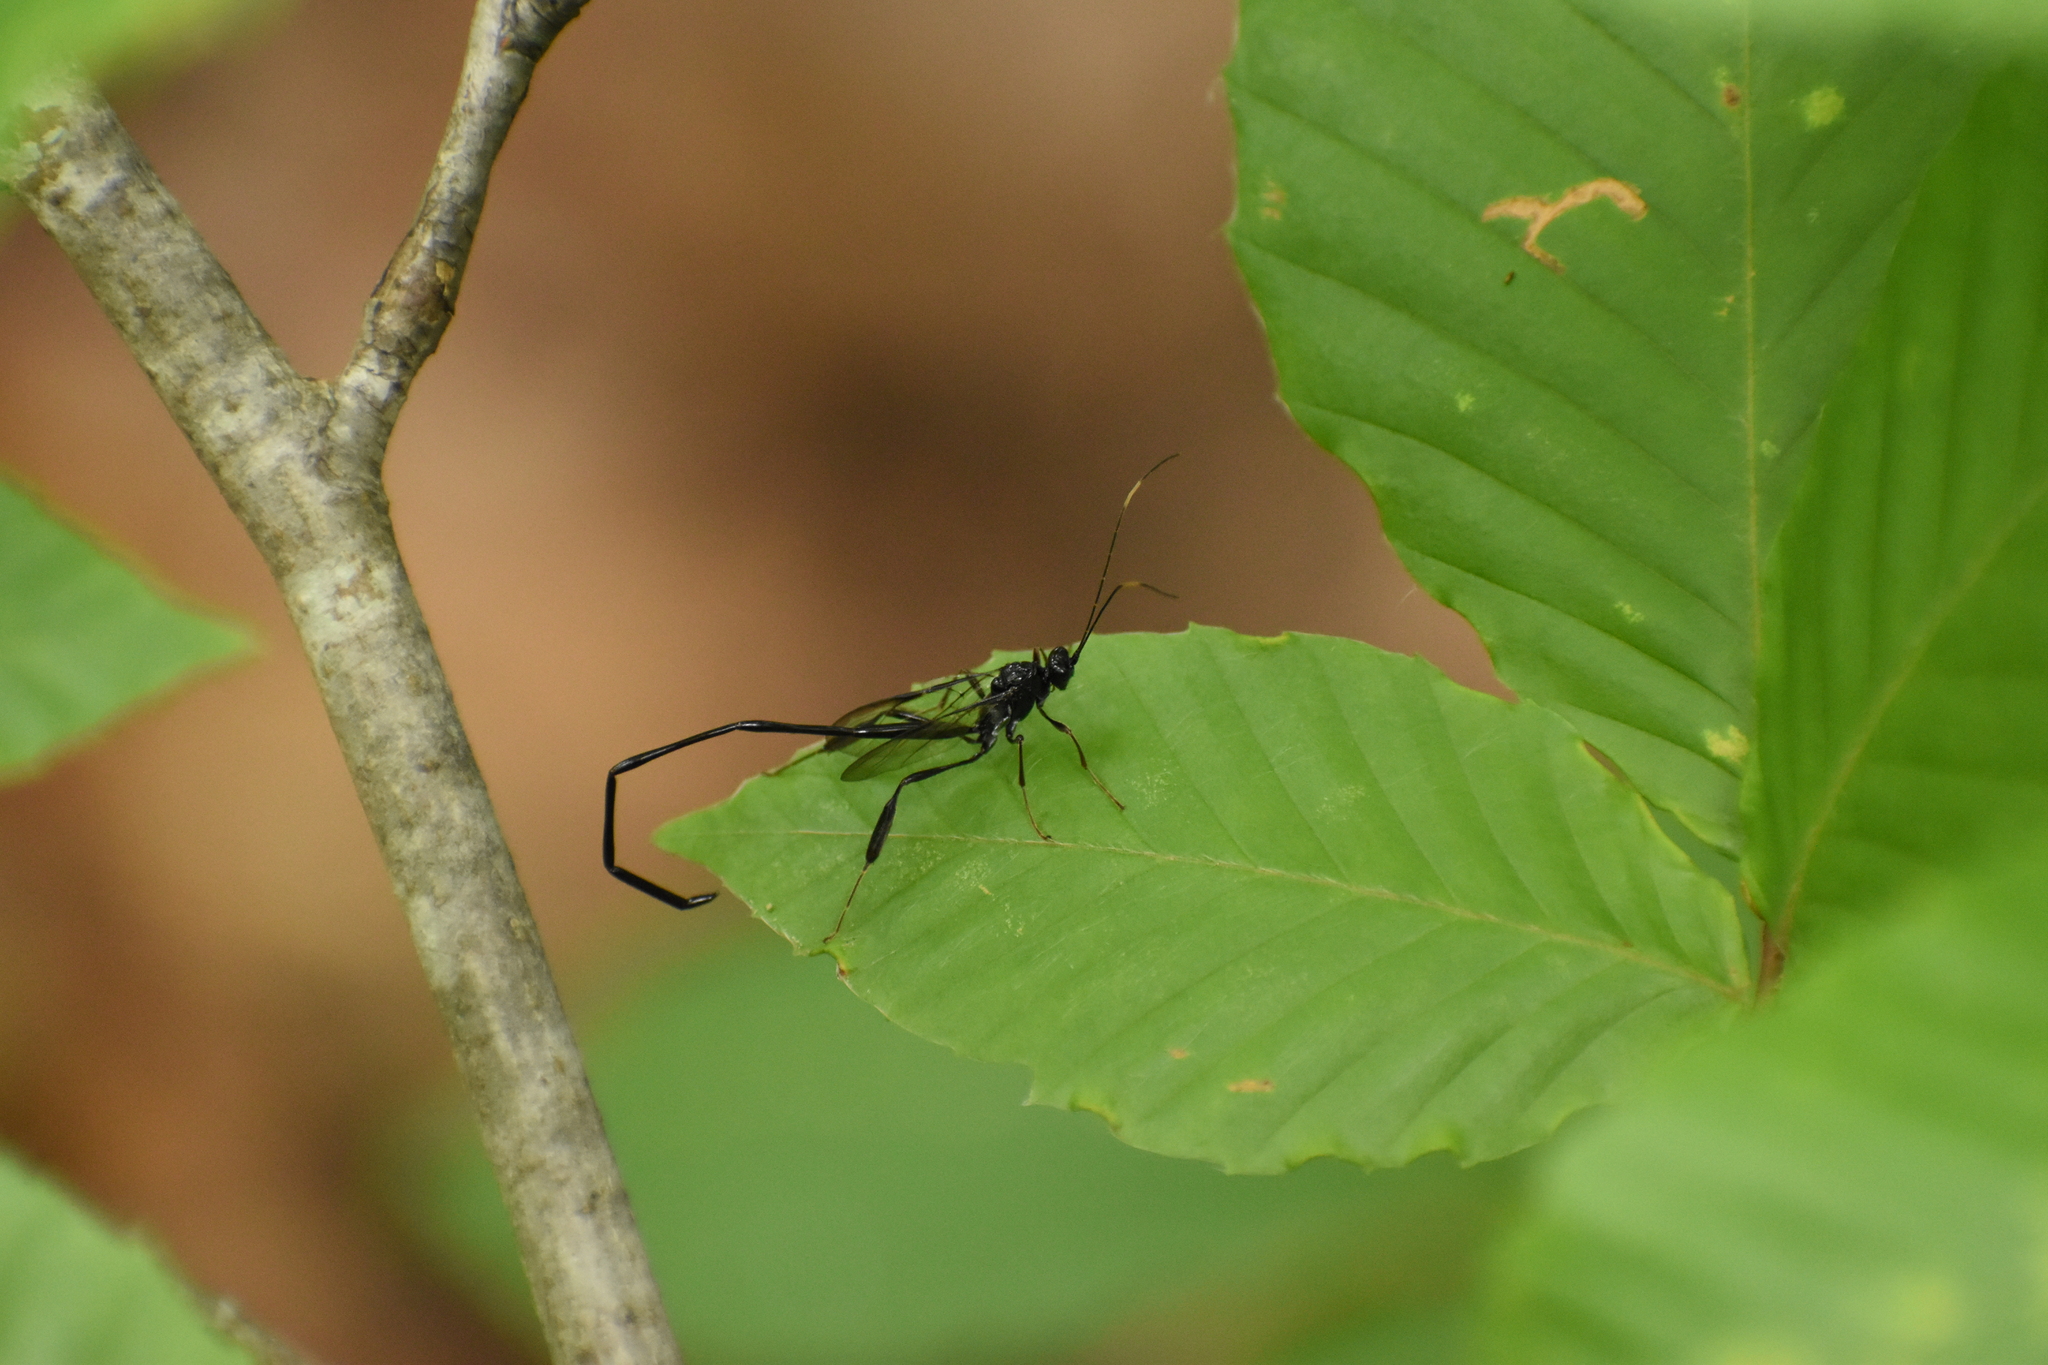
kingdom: Animalia
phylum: Arthropoda
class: Insecta
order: Hymenoptera
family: Pelecinidae
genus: Pelecinus
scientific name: Pelecinus polyturator
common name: American pelecinid wasp
